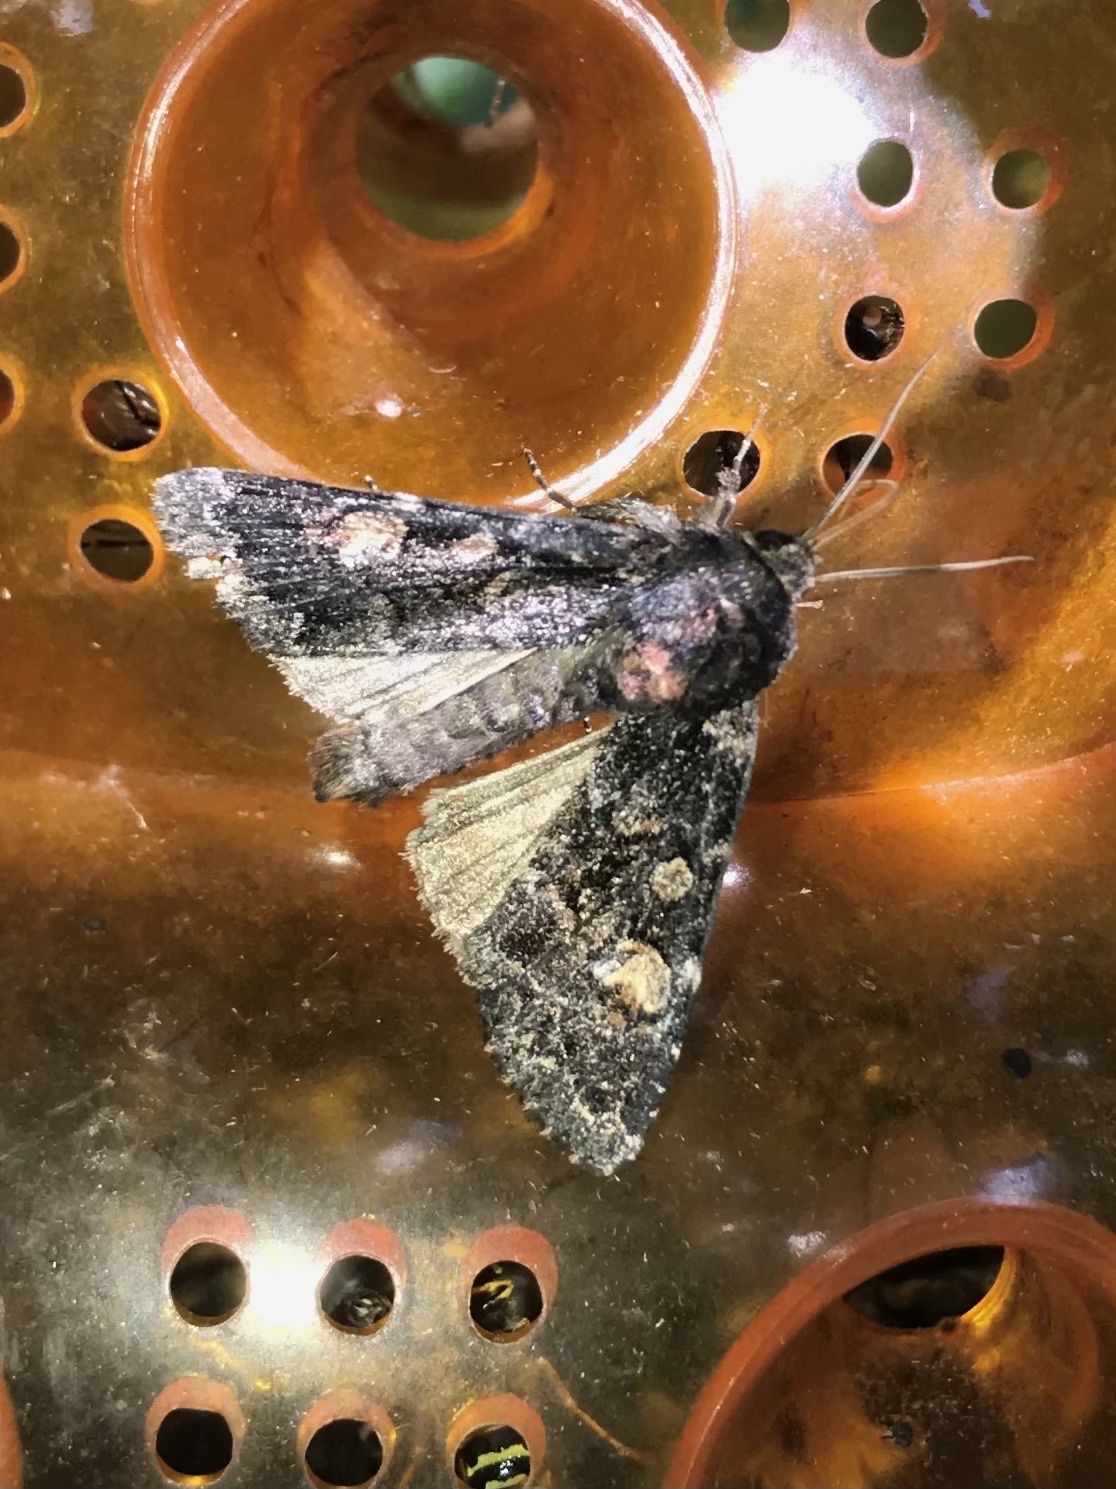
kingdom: Animalia
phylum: Arthropoda
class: Insecta
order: Lepidoptera
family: Noctuidae
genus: Apamea
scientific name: Apamea rubrirena
